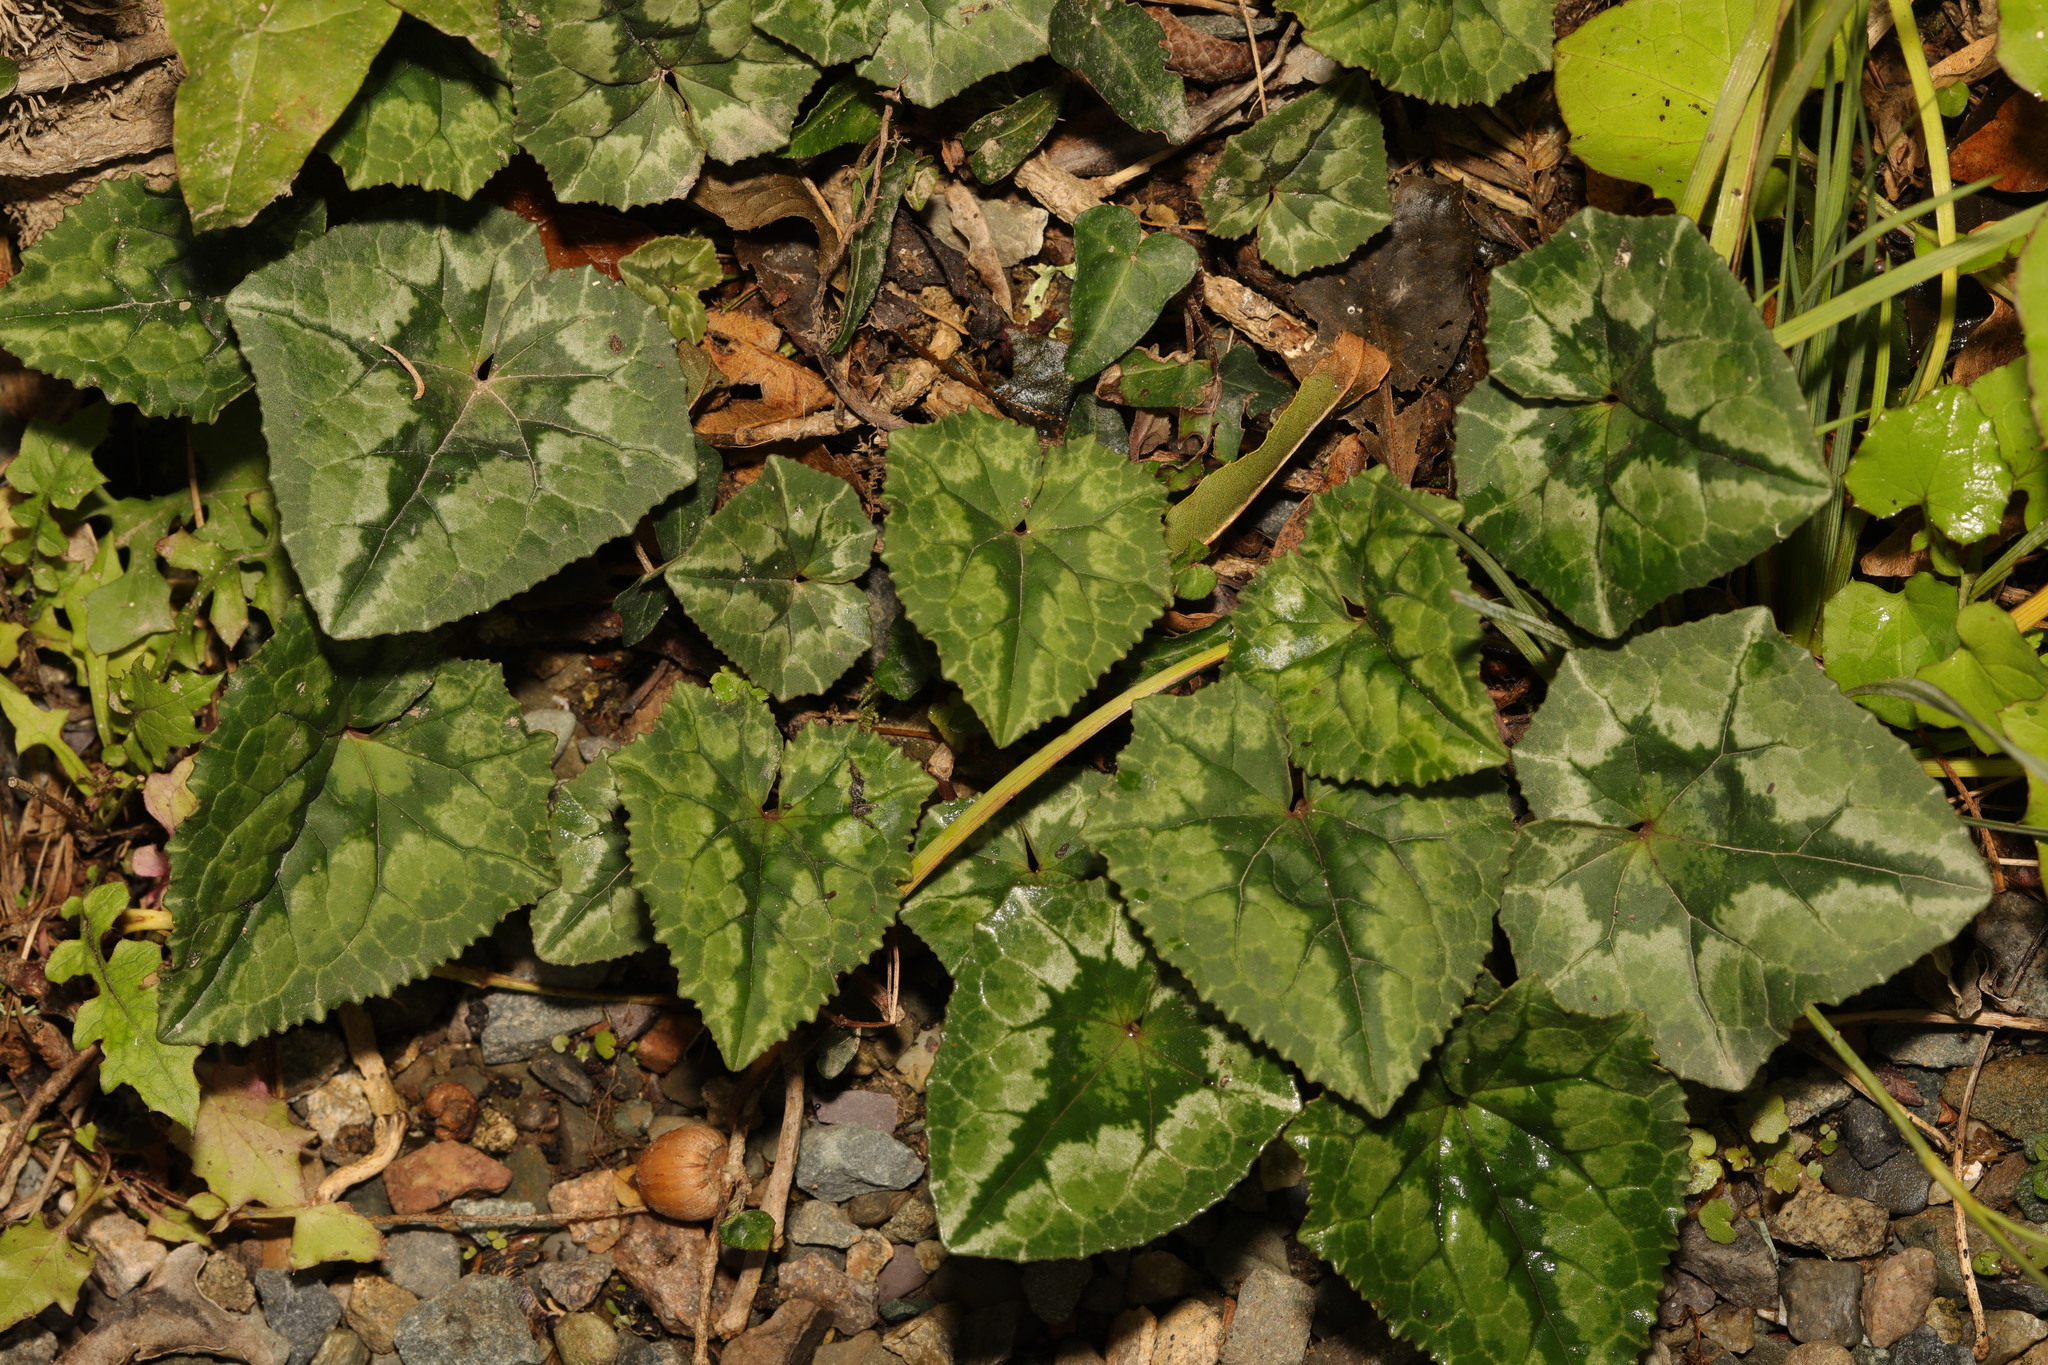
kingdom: Plantae
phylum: Tracheophyta
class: Magnoliopsida
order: Ericales
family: Primulaceae
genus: Cyclamen
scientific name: Cyclamen hederifolium
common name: Sowbread
